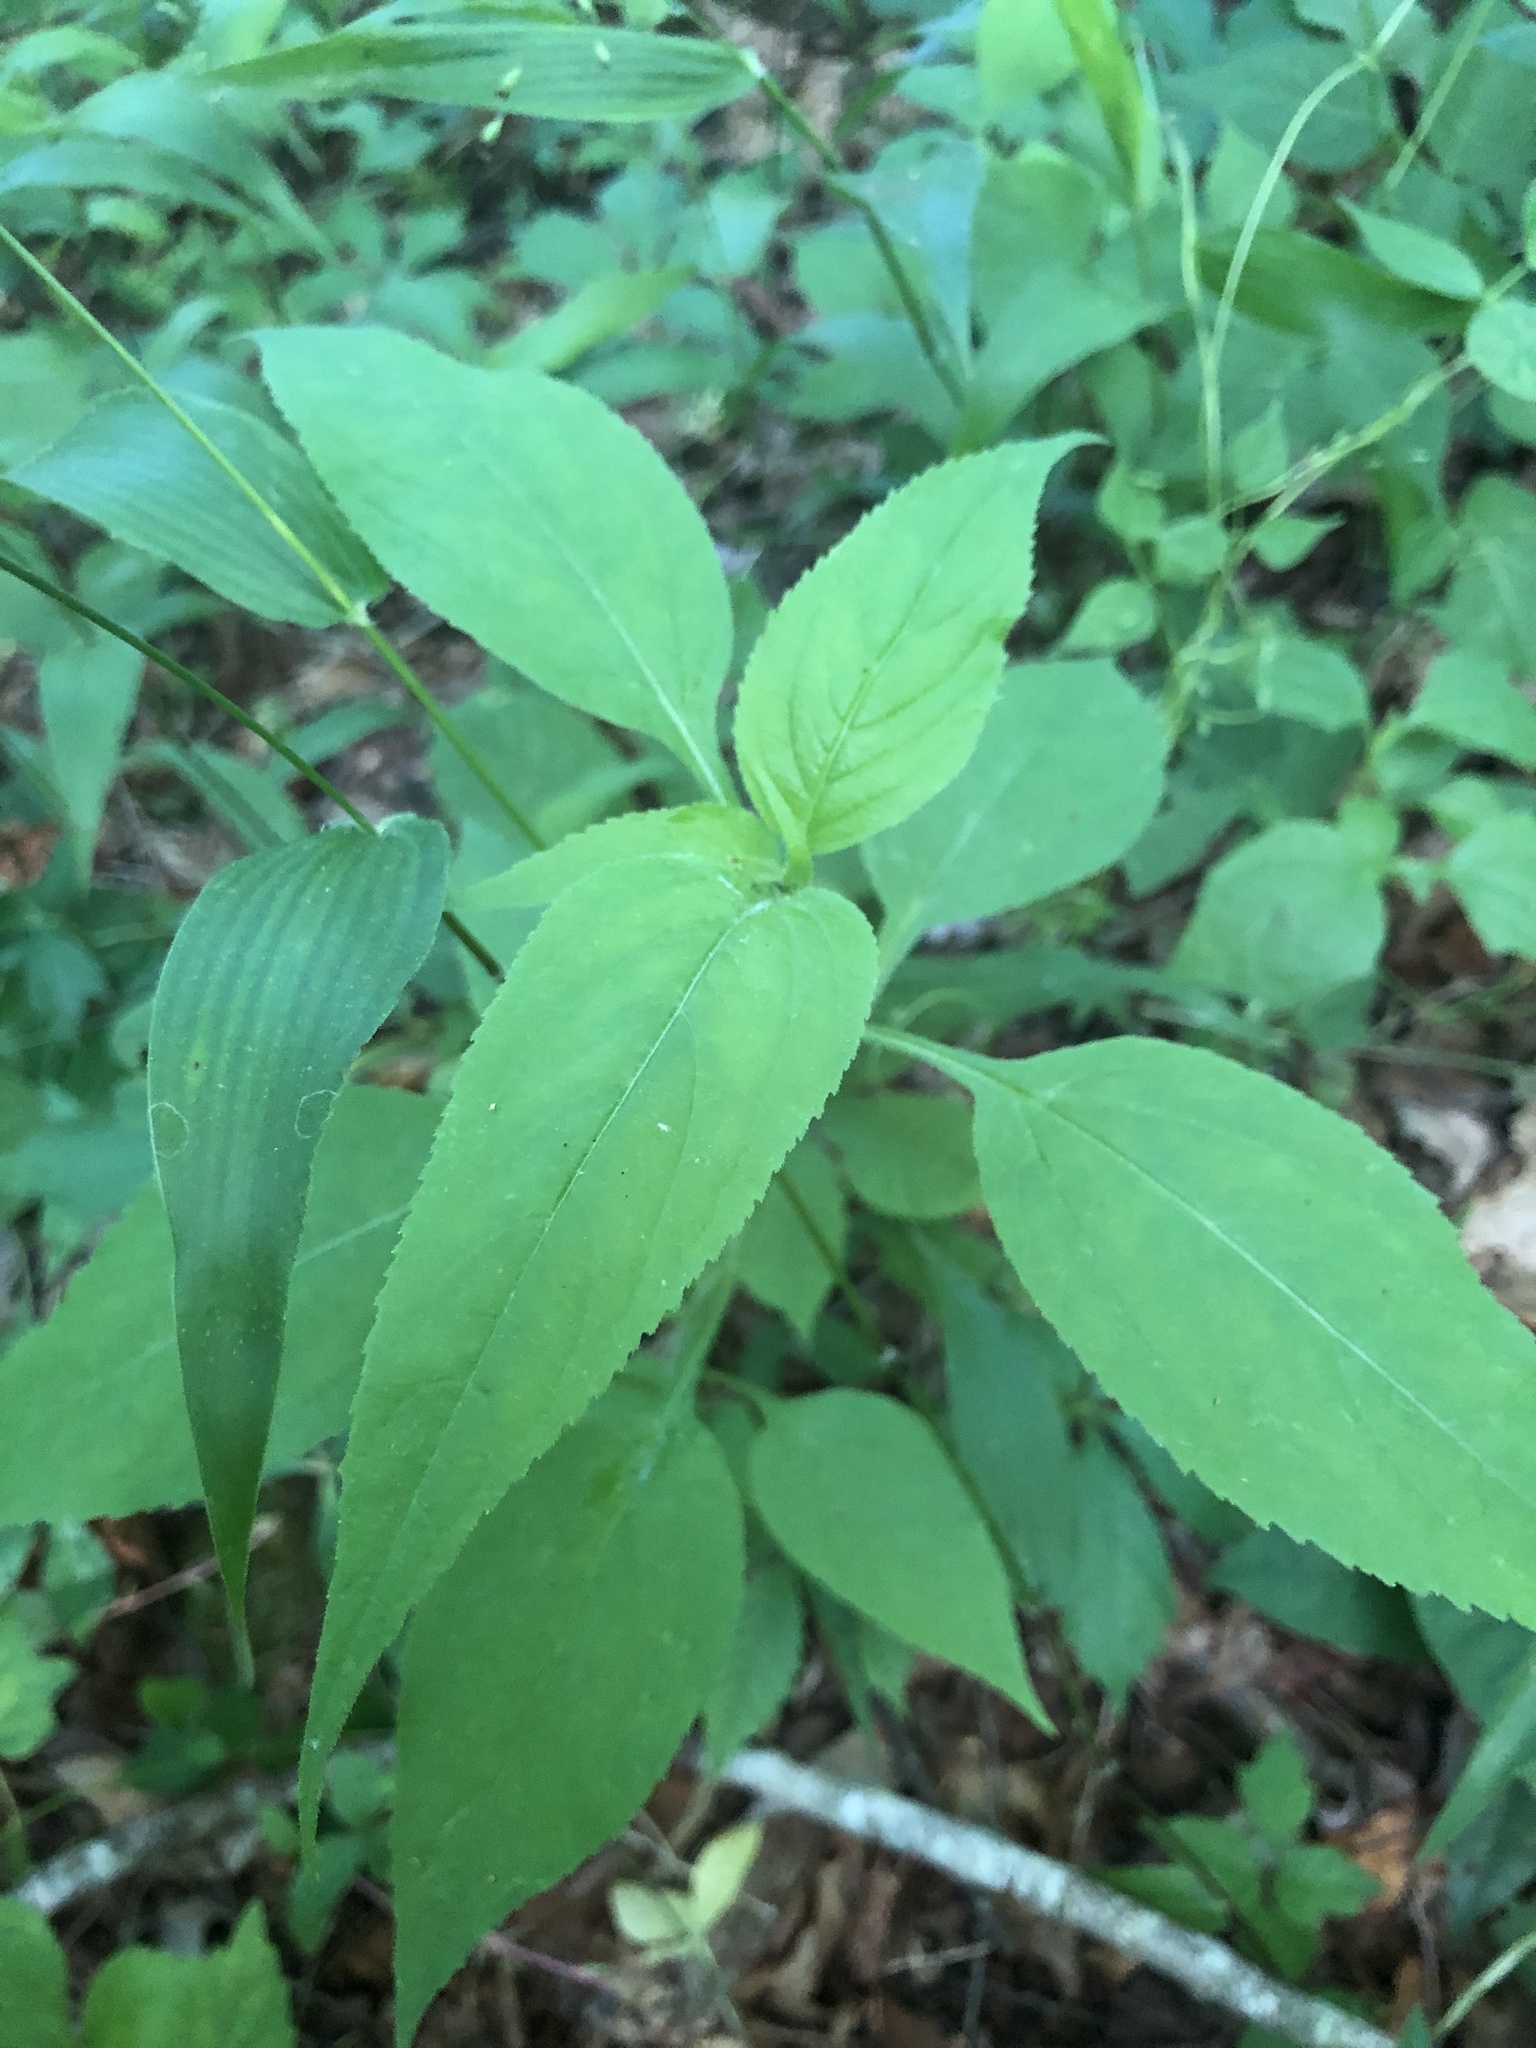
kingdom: Plantae
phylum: Tracheophyta
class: Magnoliopsida
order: Asterales
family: Campanulaceae
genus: Campanulastrum
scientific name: Campanulastrum americanum
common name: American bellflower
